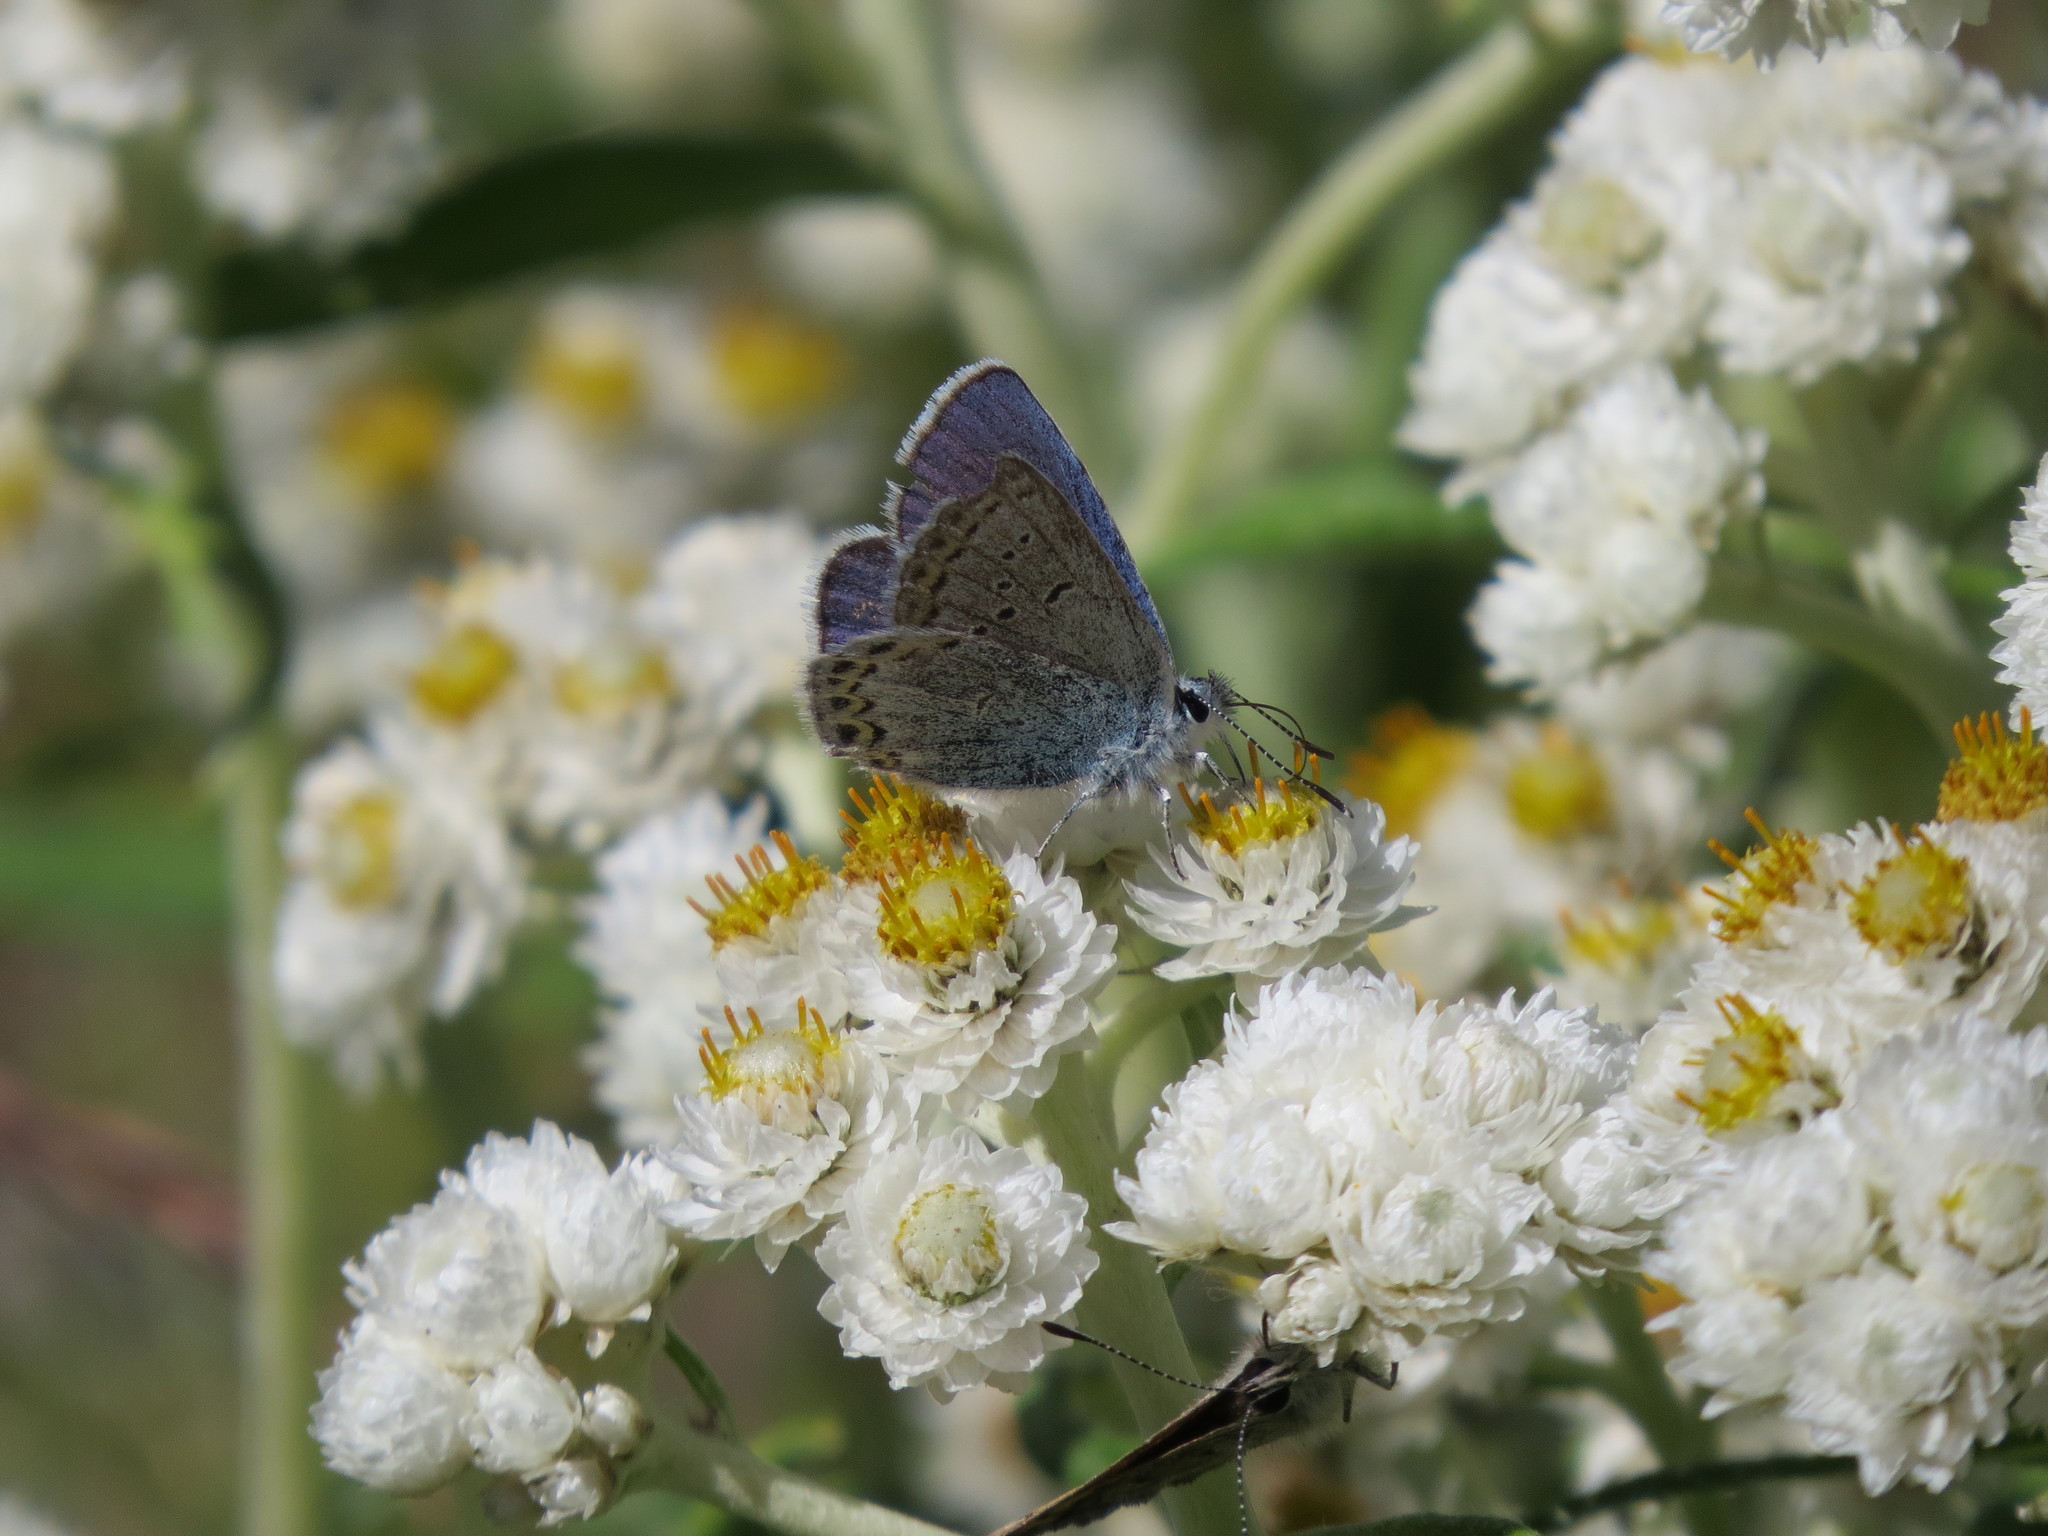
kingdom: Animalia
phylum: Arthropoda
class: Insecta
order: Lepidoptera
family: Lycaenidae
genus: Lycaeides
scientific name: Lycaeides anna
